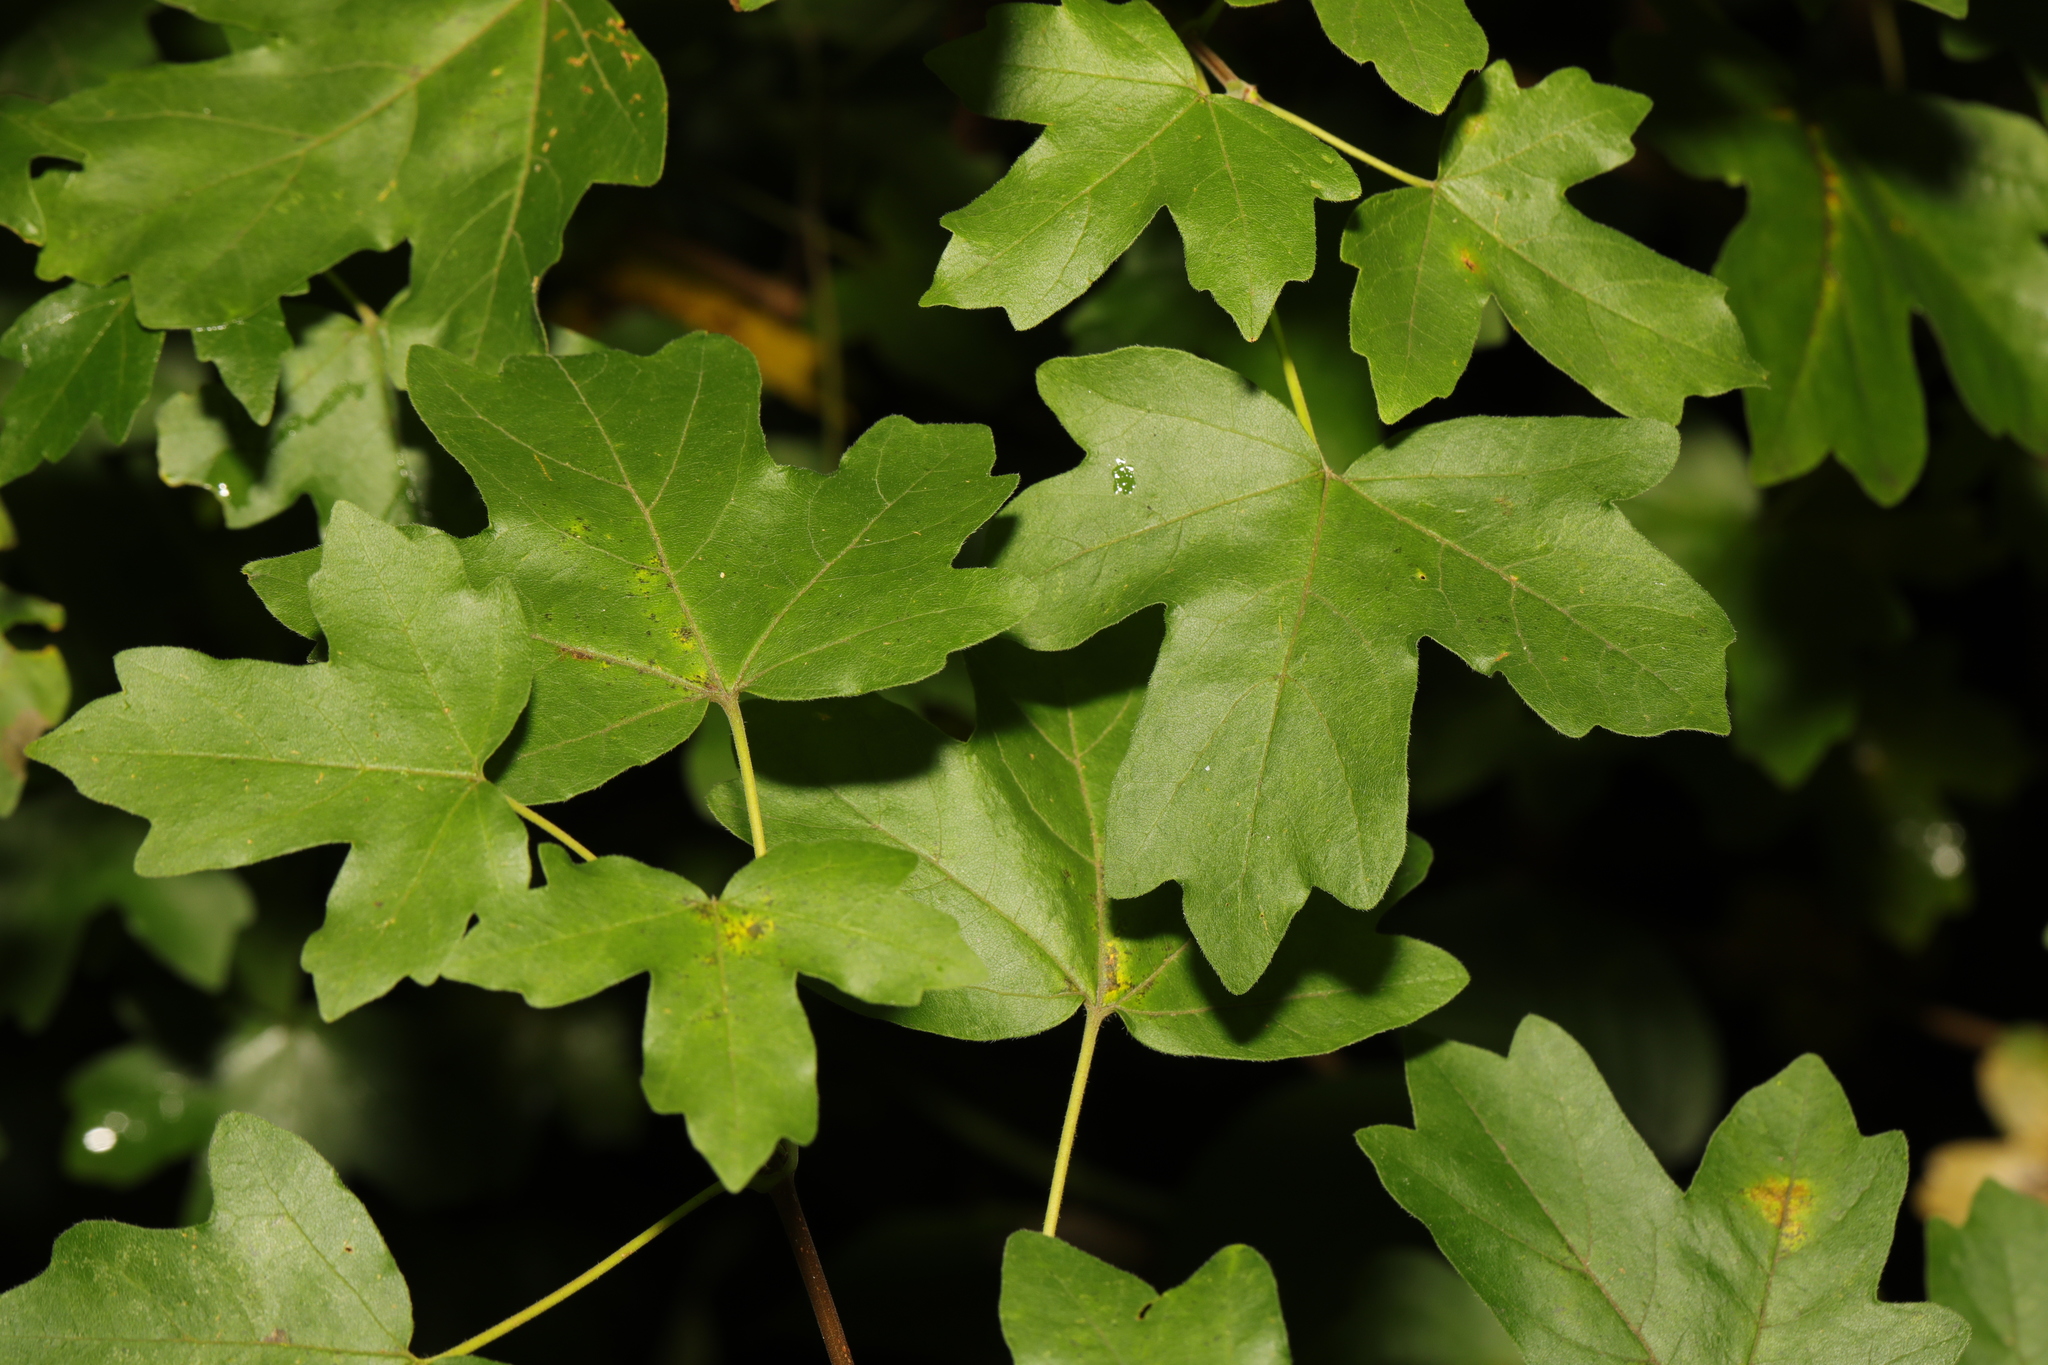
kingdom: Plantae
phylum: Tracheophyta
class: Magnoliopsida
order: Sapindales
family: Sapindaceae
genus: Acer
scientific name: Acer campestre
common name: Field maple
